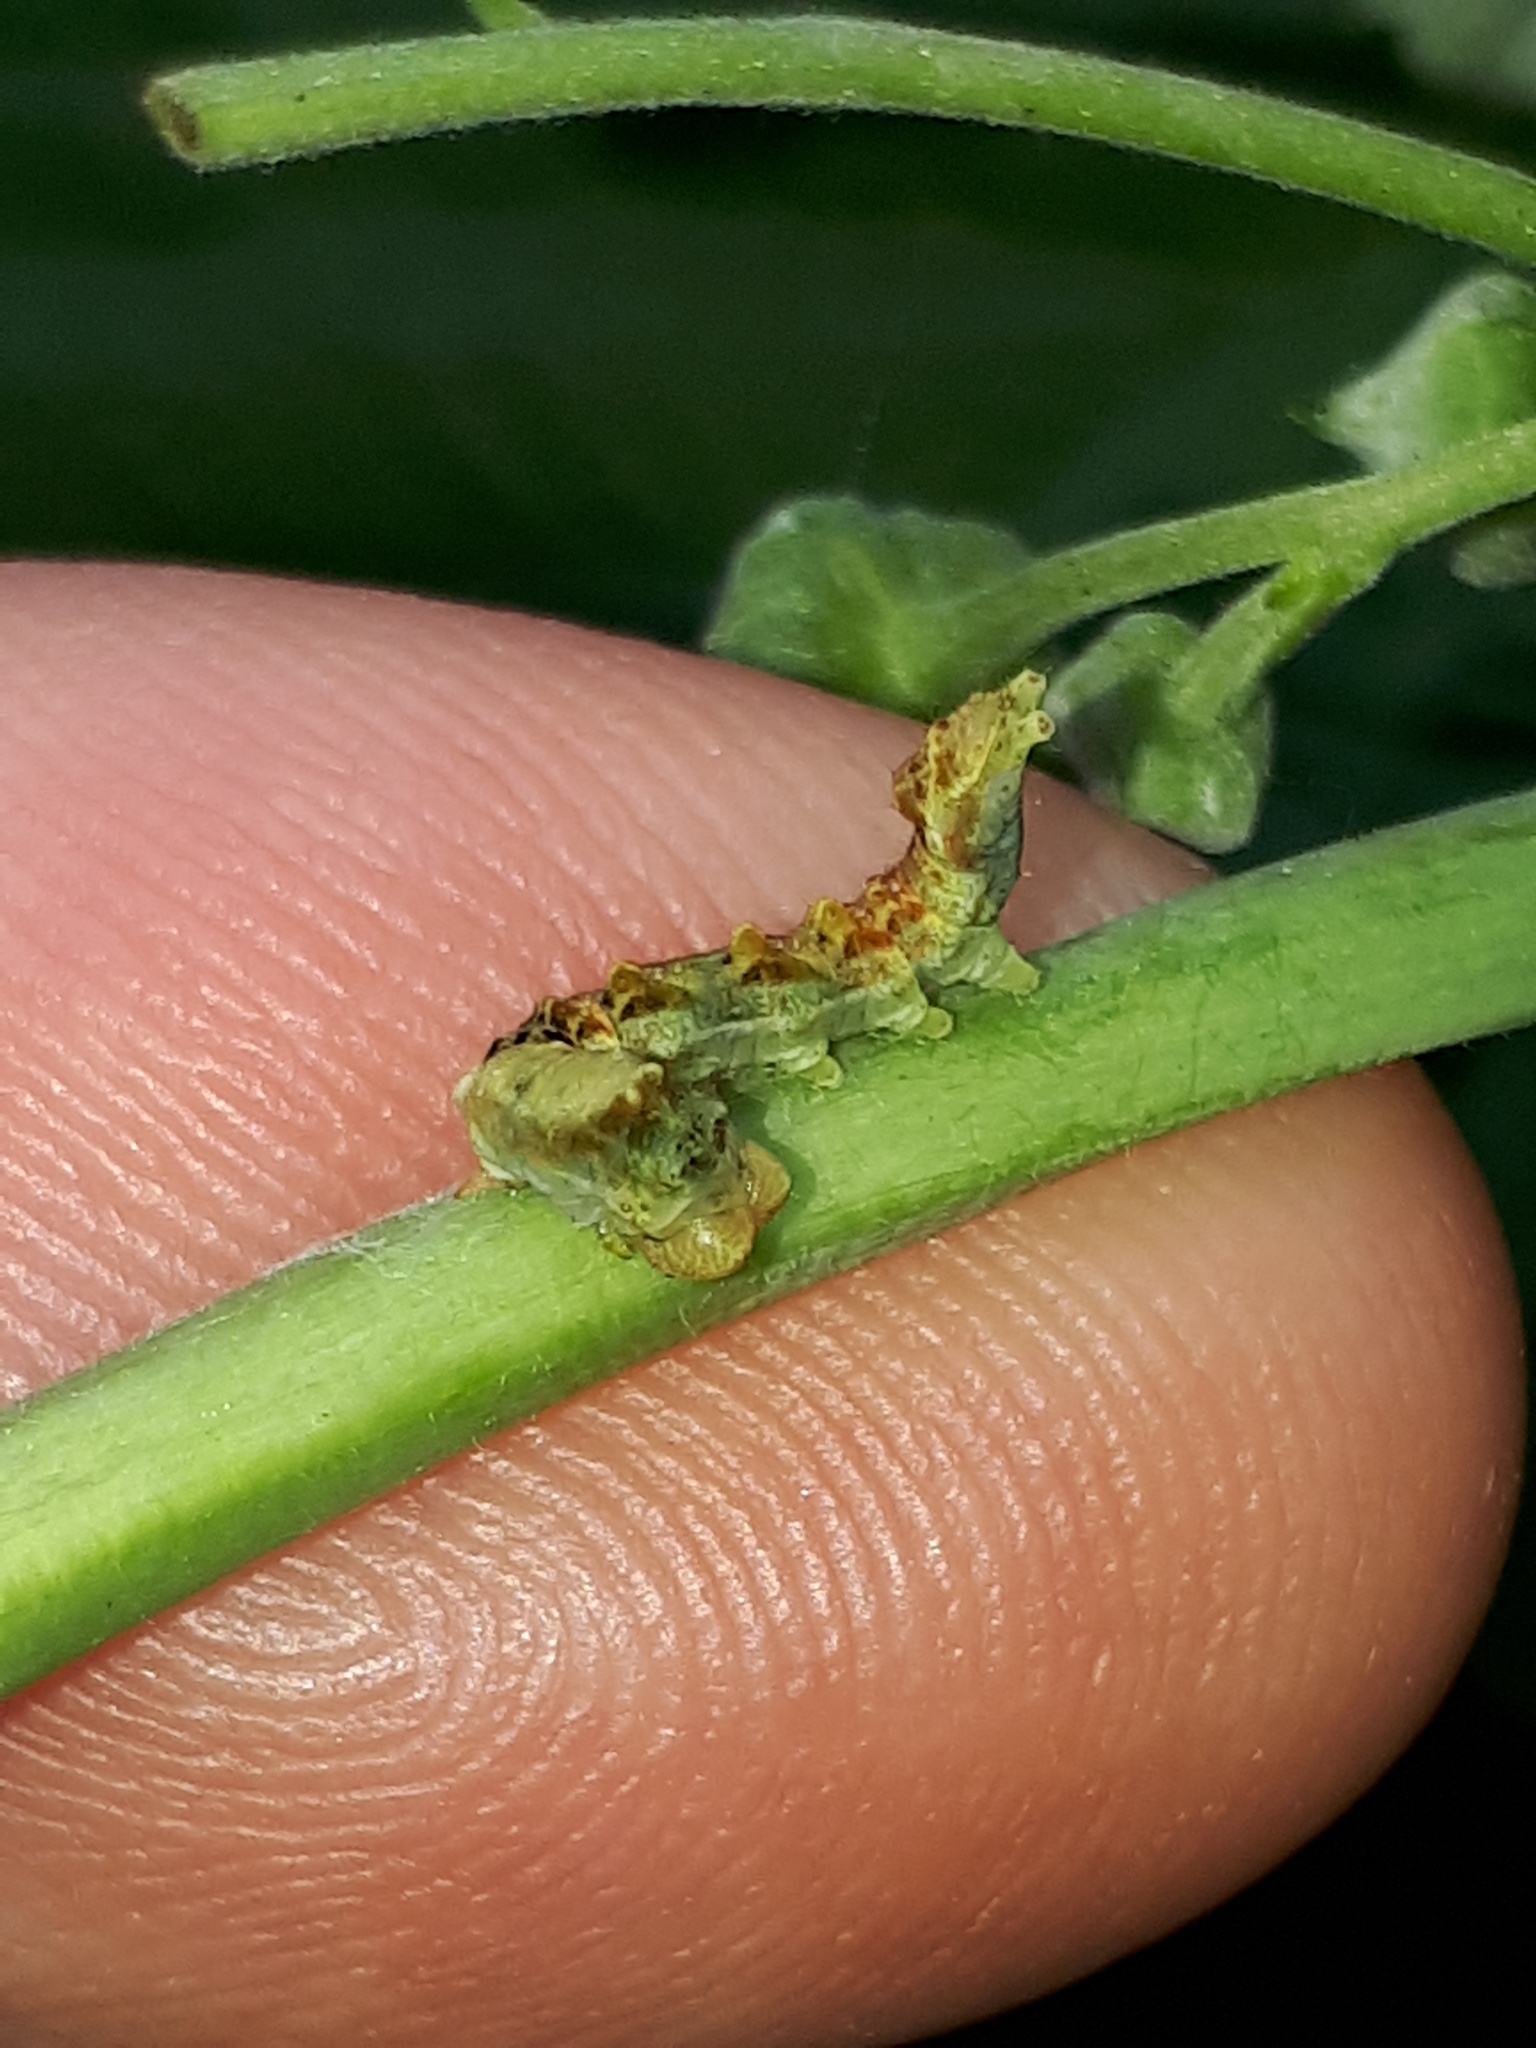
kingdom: Animalia
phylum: Arthropoda
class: Insecta
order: Lepidoptera
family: Drepanidae
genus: Thyatira
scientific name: Thyatira batis
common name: Peach blossom
